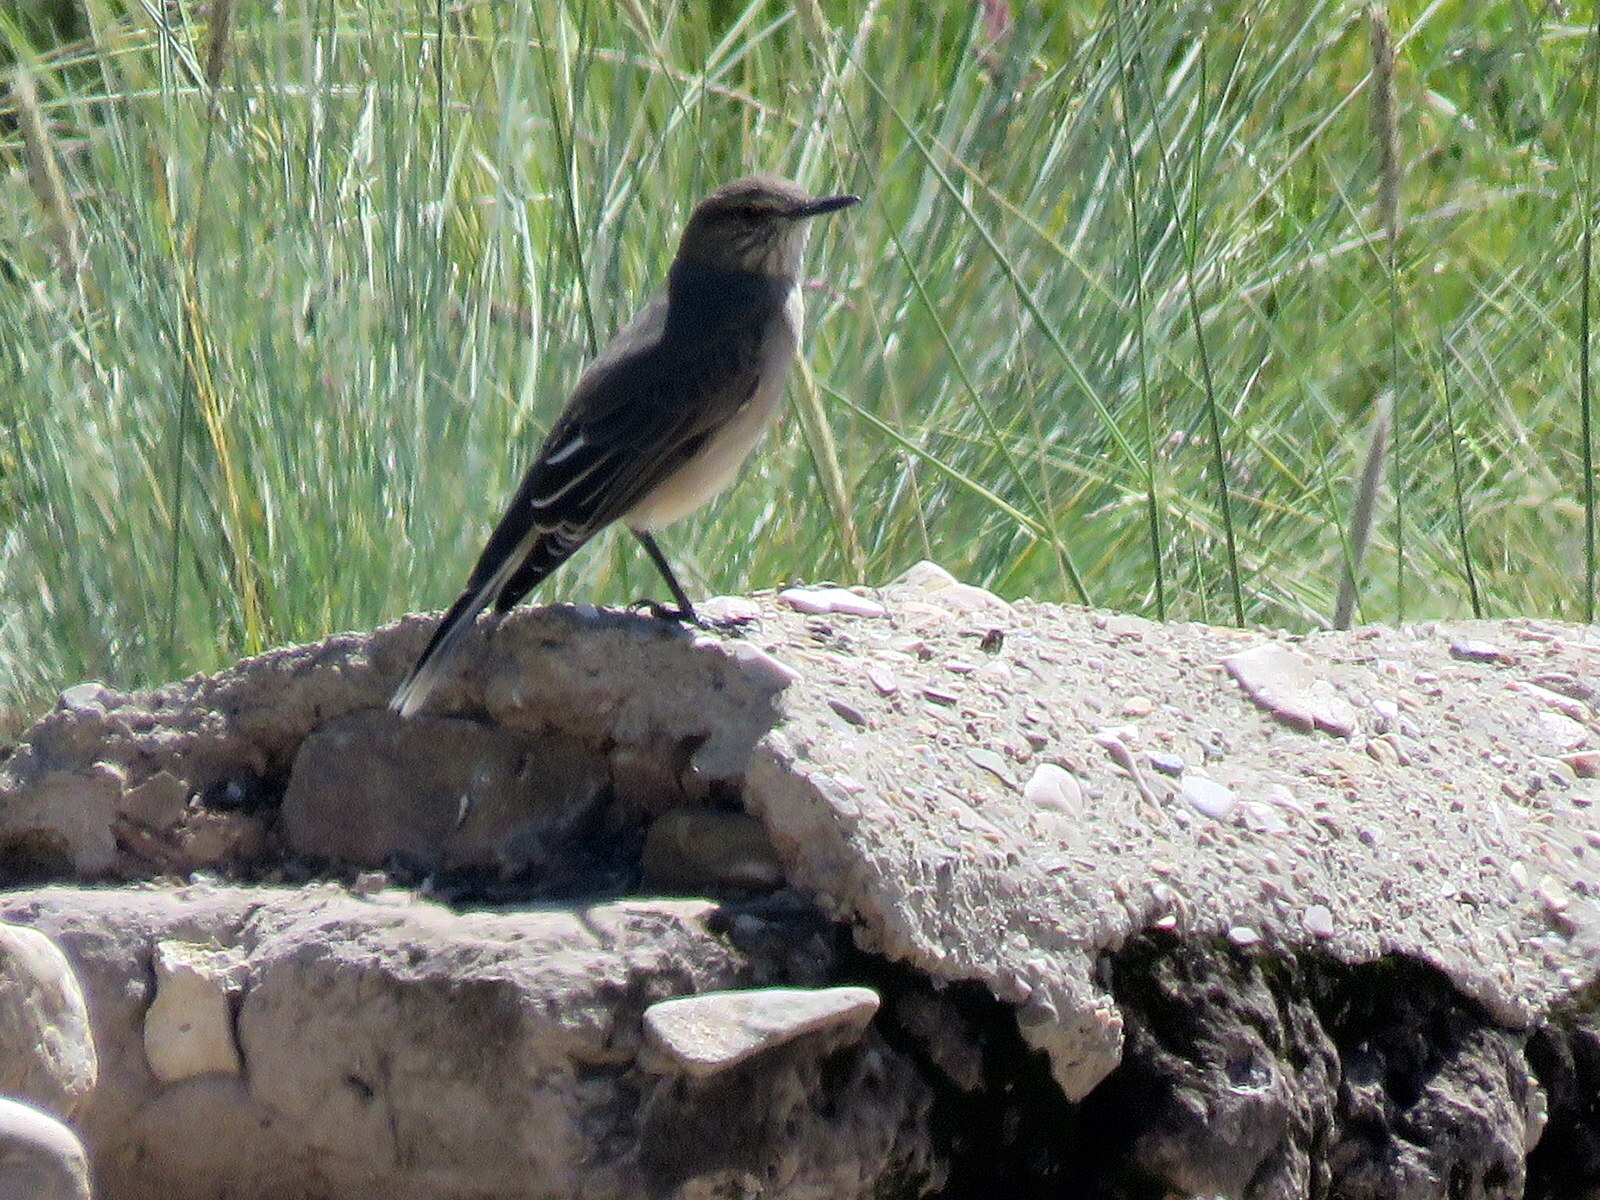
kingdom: Animalia
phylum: Chordata
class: Aves
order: Passeriformes
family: Tyrannidae
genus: Agriornis
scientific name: Agriornis montanus
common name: Black-billed shrike-tyrant
